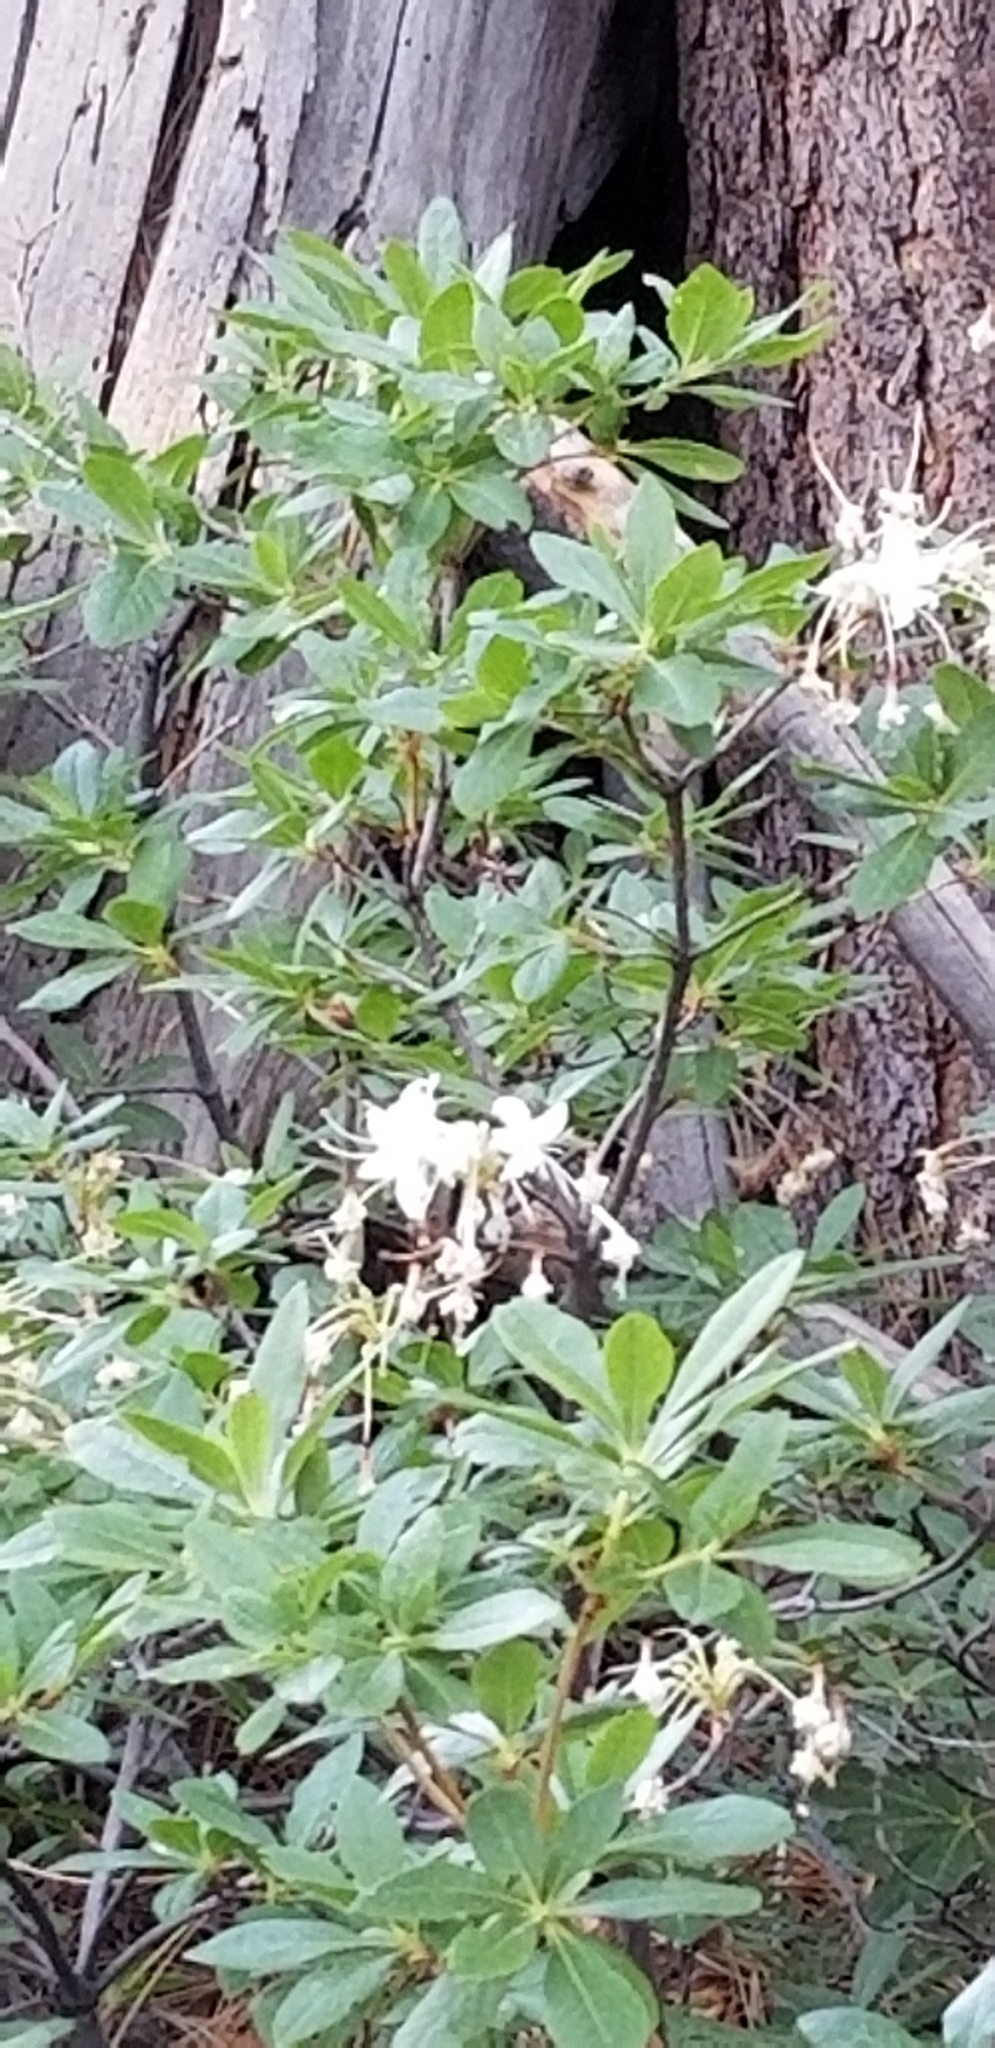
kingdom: Plantae
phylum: Tracheophyta
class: Magnoliopsida
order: Ericales
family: Ericaceae
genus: Rhododendron
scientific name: Rhododendron occidentale
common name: Western azalea
